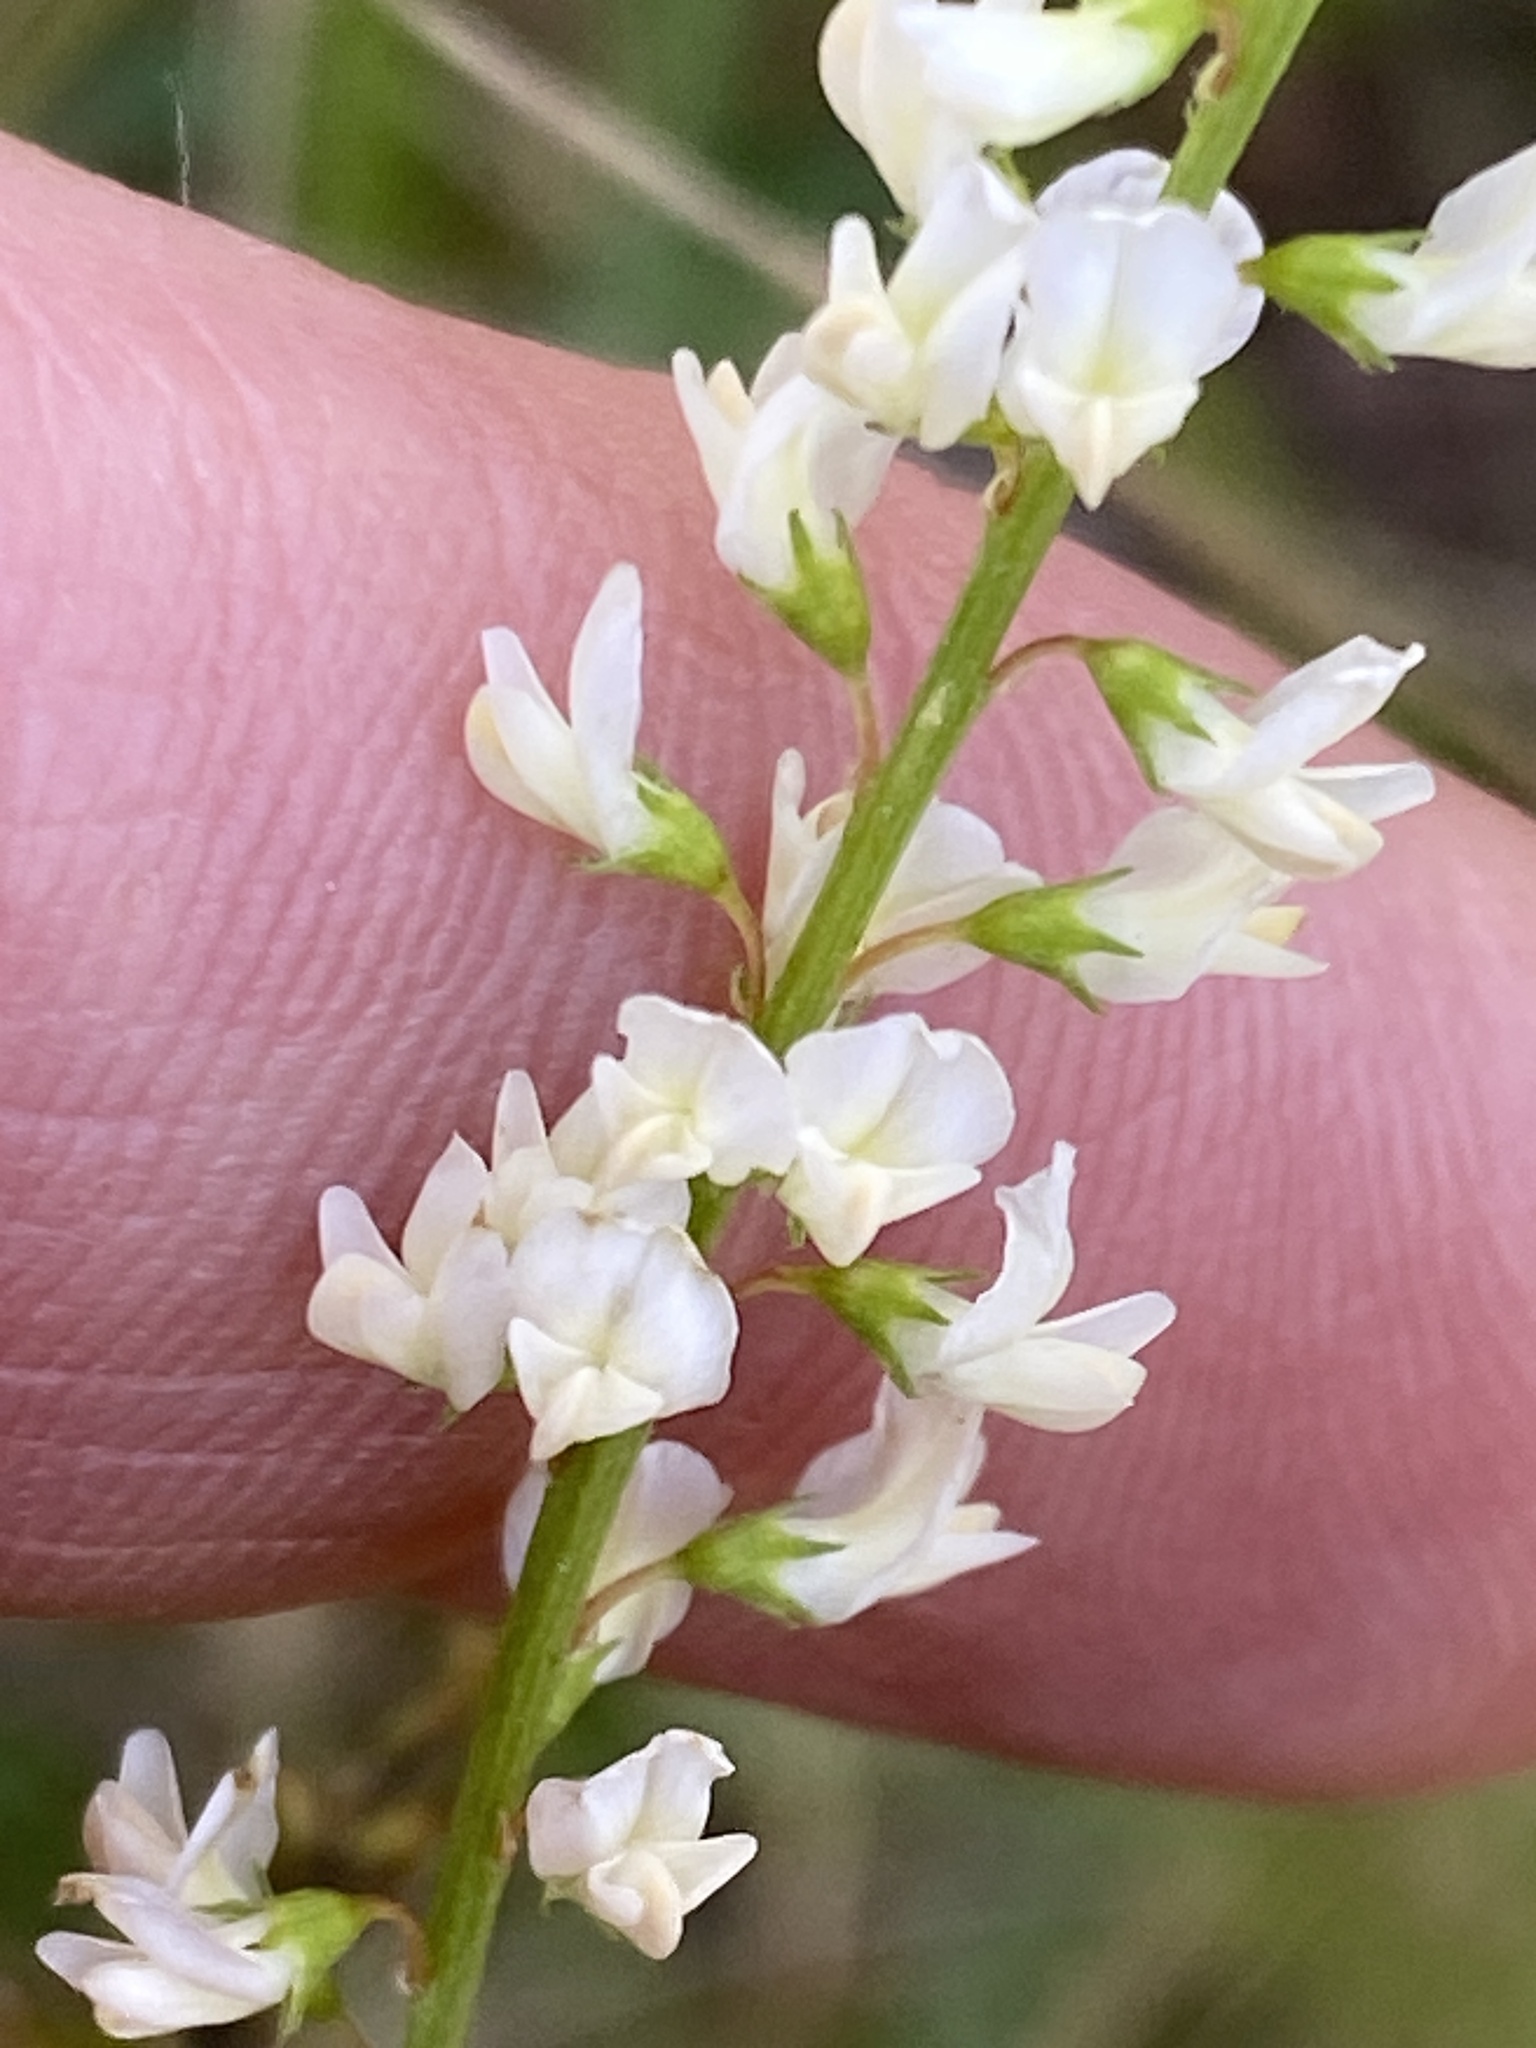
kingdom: Plantae
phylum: Tracheophyta
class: Magnoliopsida
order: Fabales
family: Fabaceae
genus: Melilotus
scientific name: Melilotus albus
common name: White melilot
